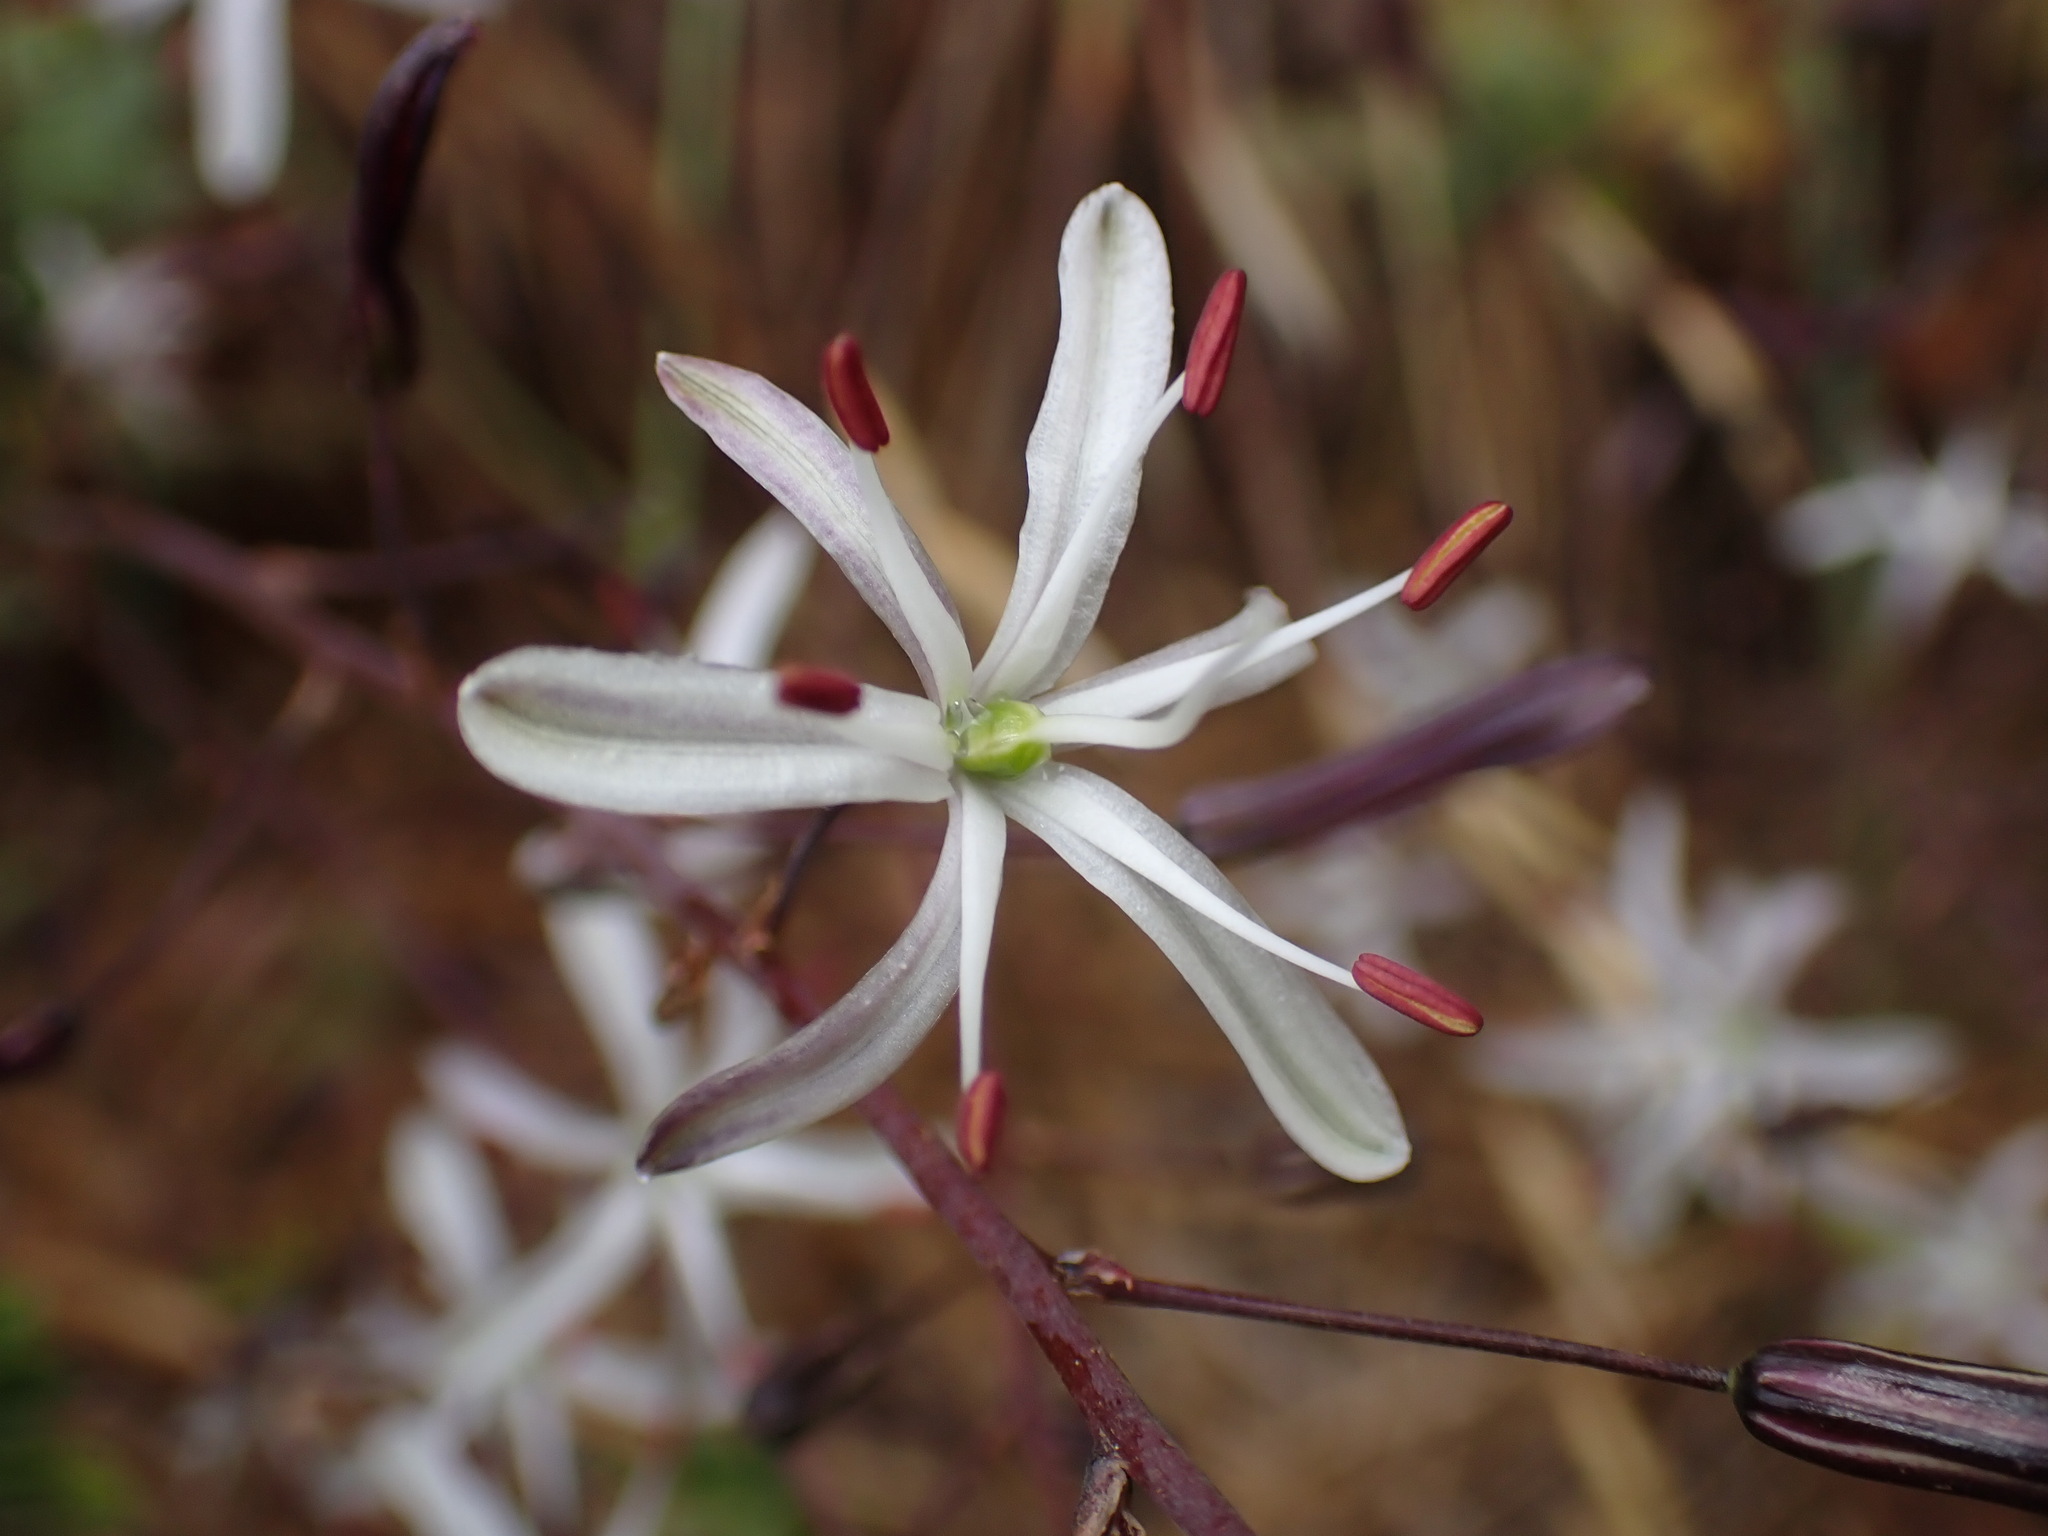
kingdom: Plantae
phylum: Tracheophyta
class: Liliopsida
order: Asparagales
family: Asparagaceae
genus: Chlorogalum
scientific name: Chlorogalum pomeridianum
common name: Amole
